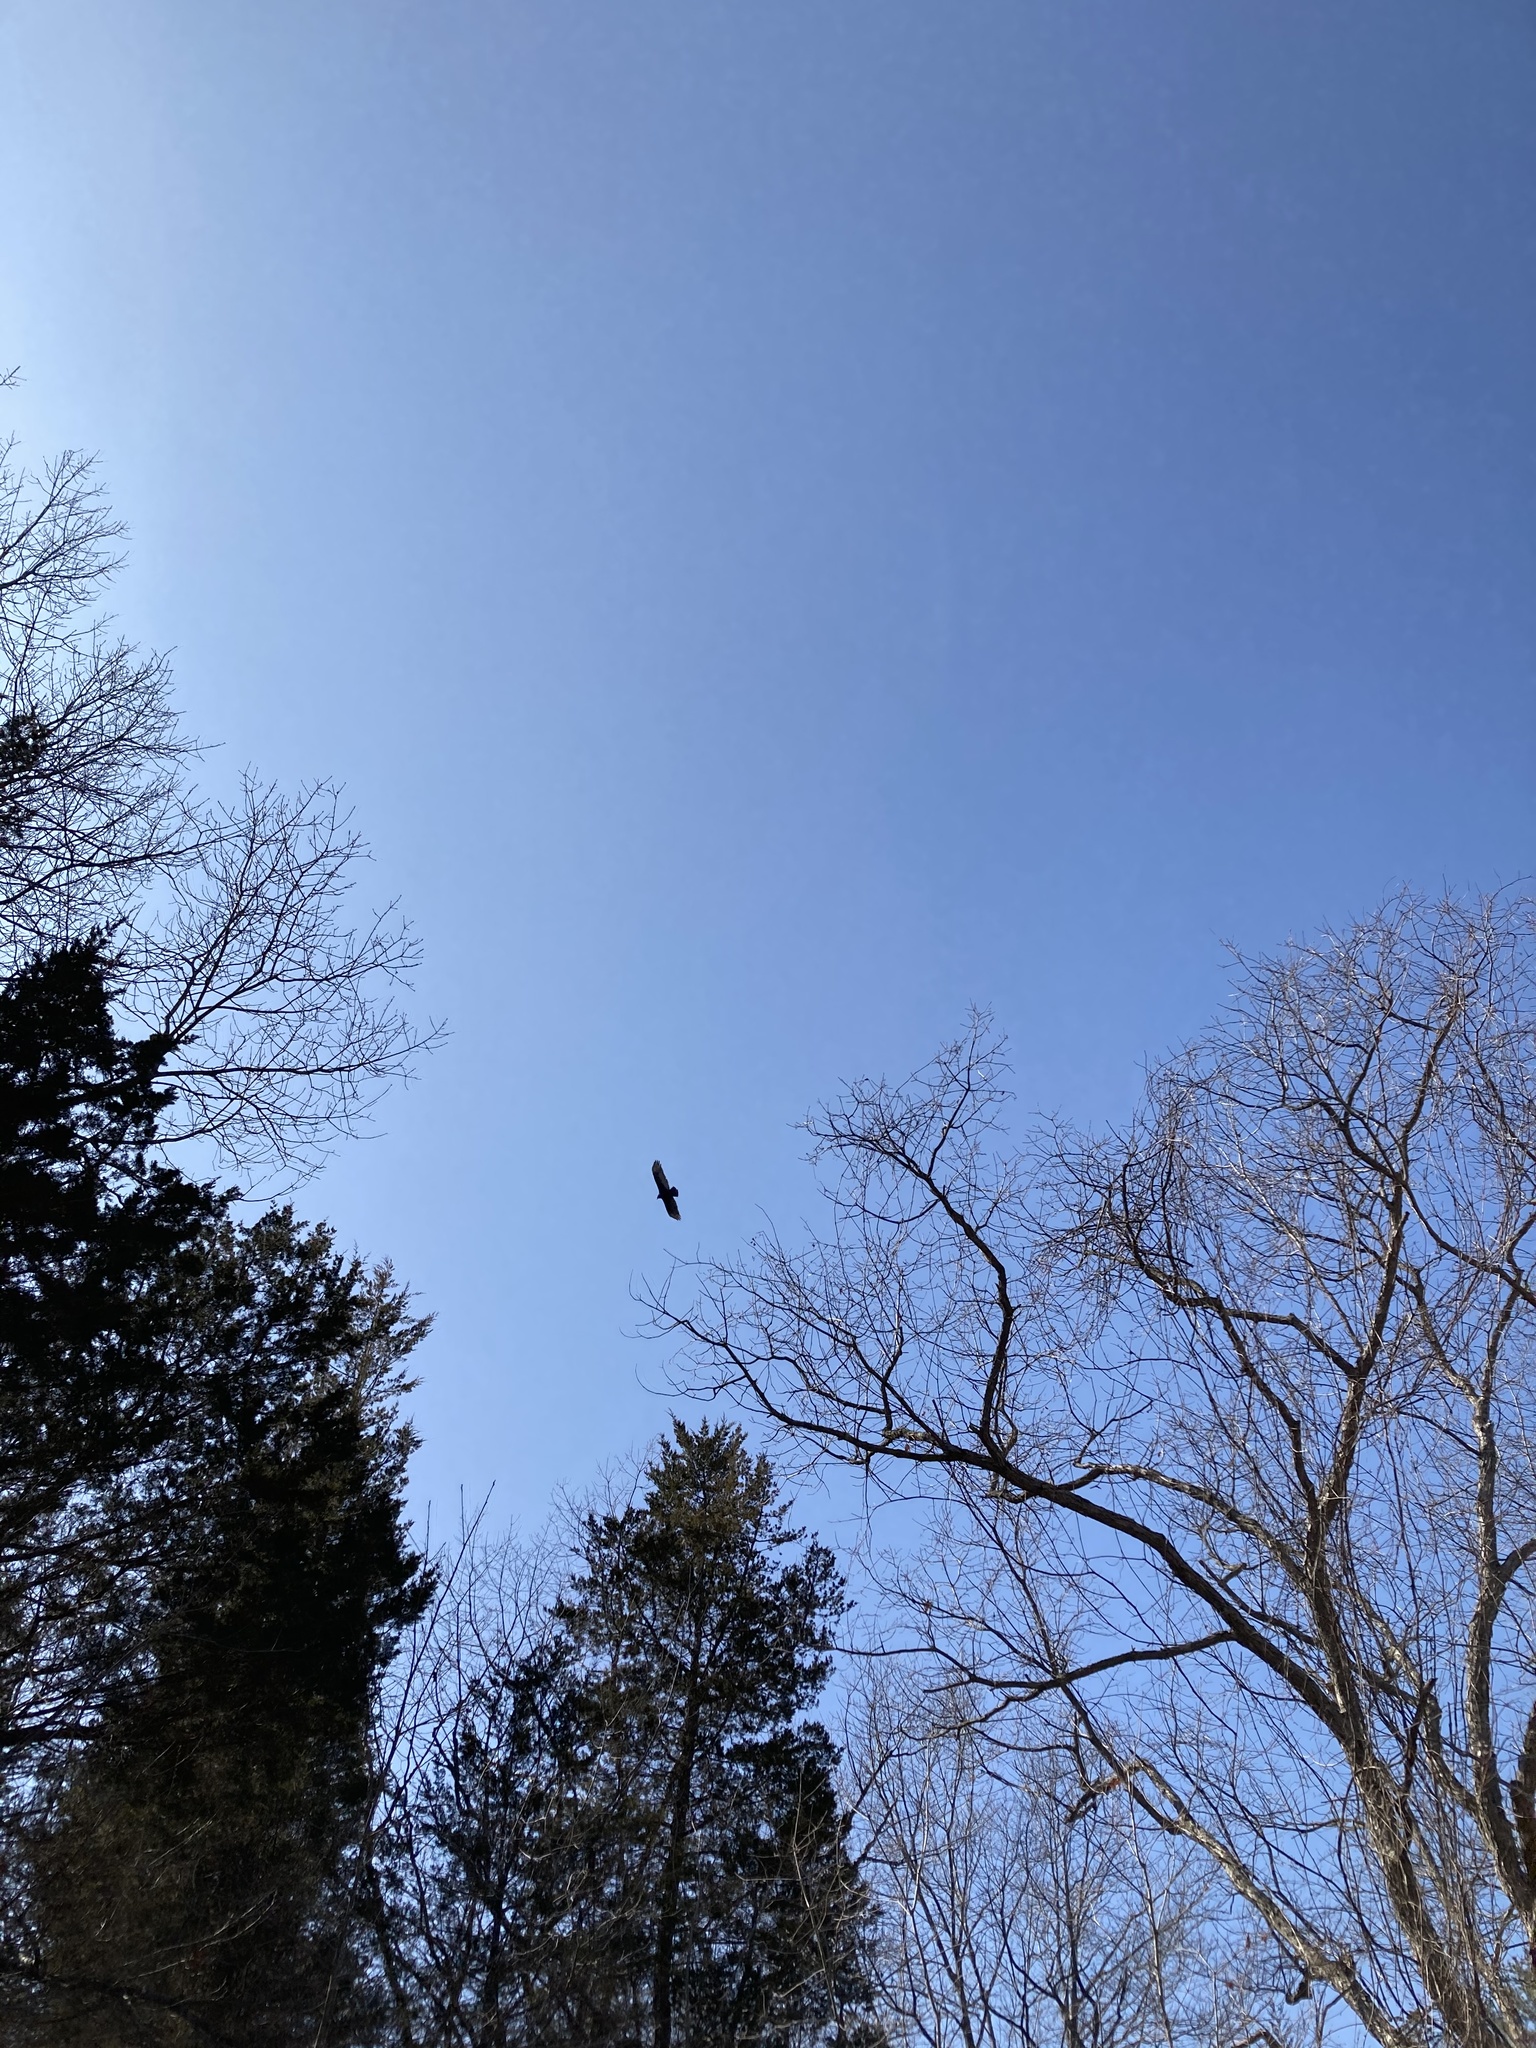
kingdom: Animalia
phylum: Chordata
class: Aves
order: Accipitriformes
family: Cathartidae
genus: Cathartes
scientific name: Cathartes aura
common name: Turkey vulture
